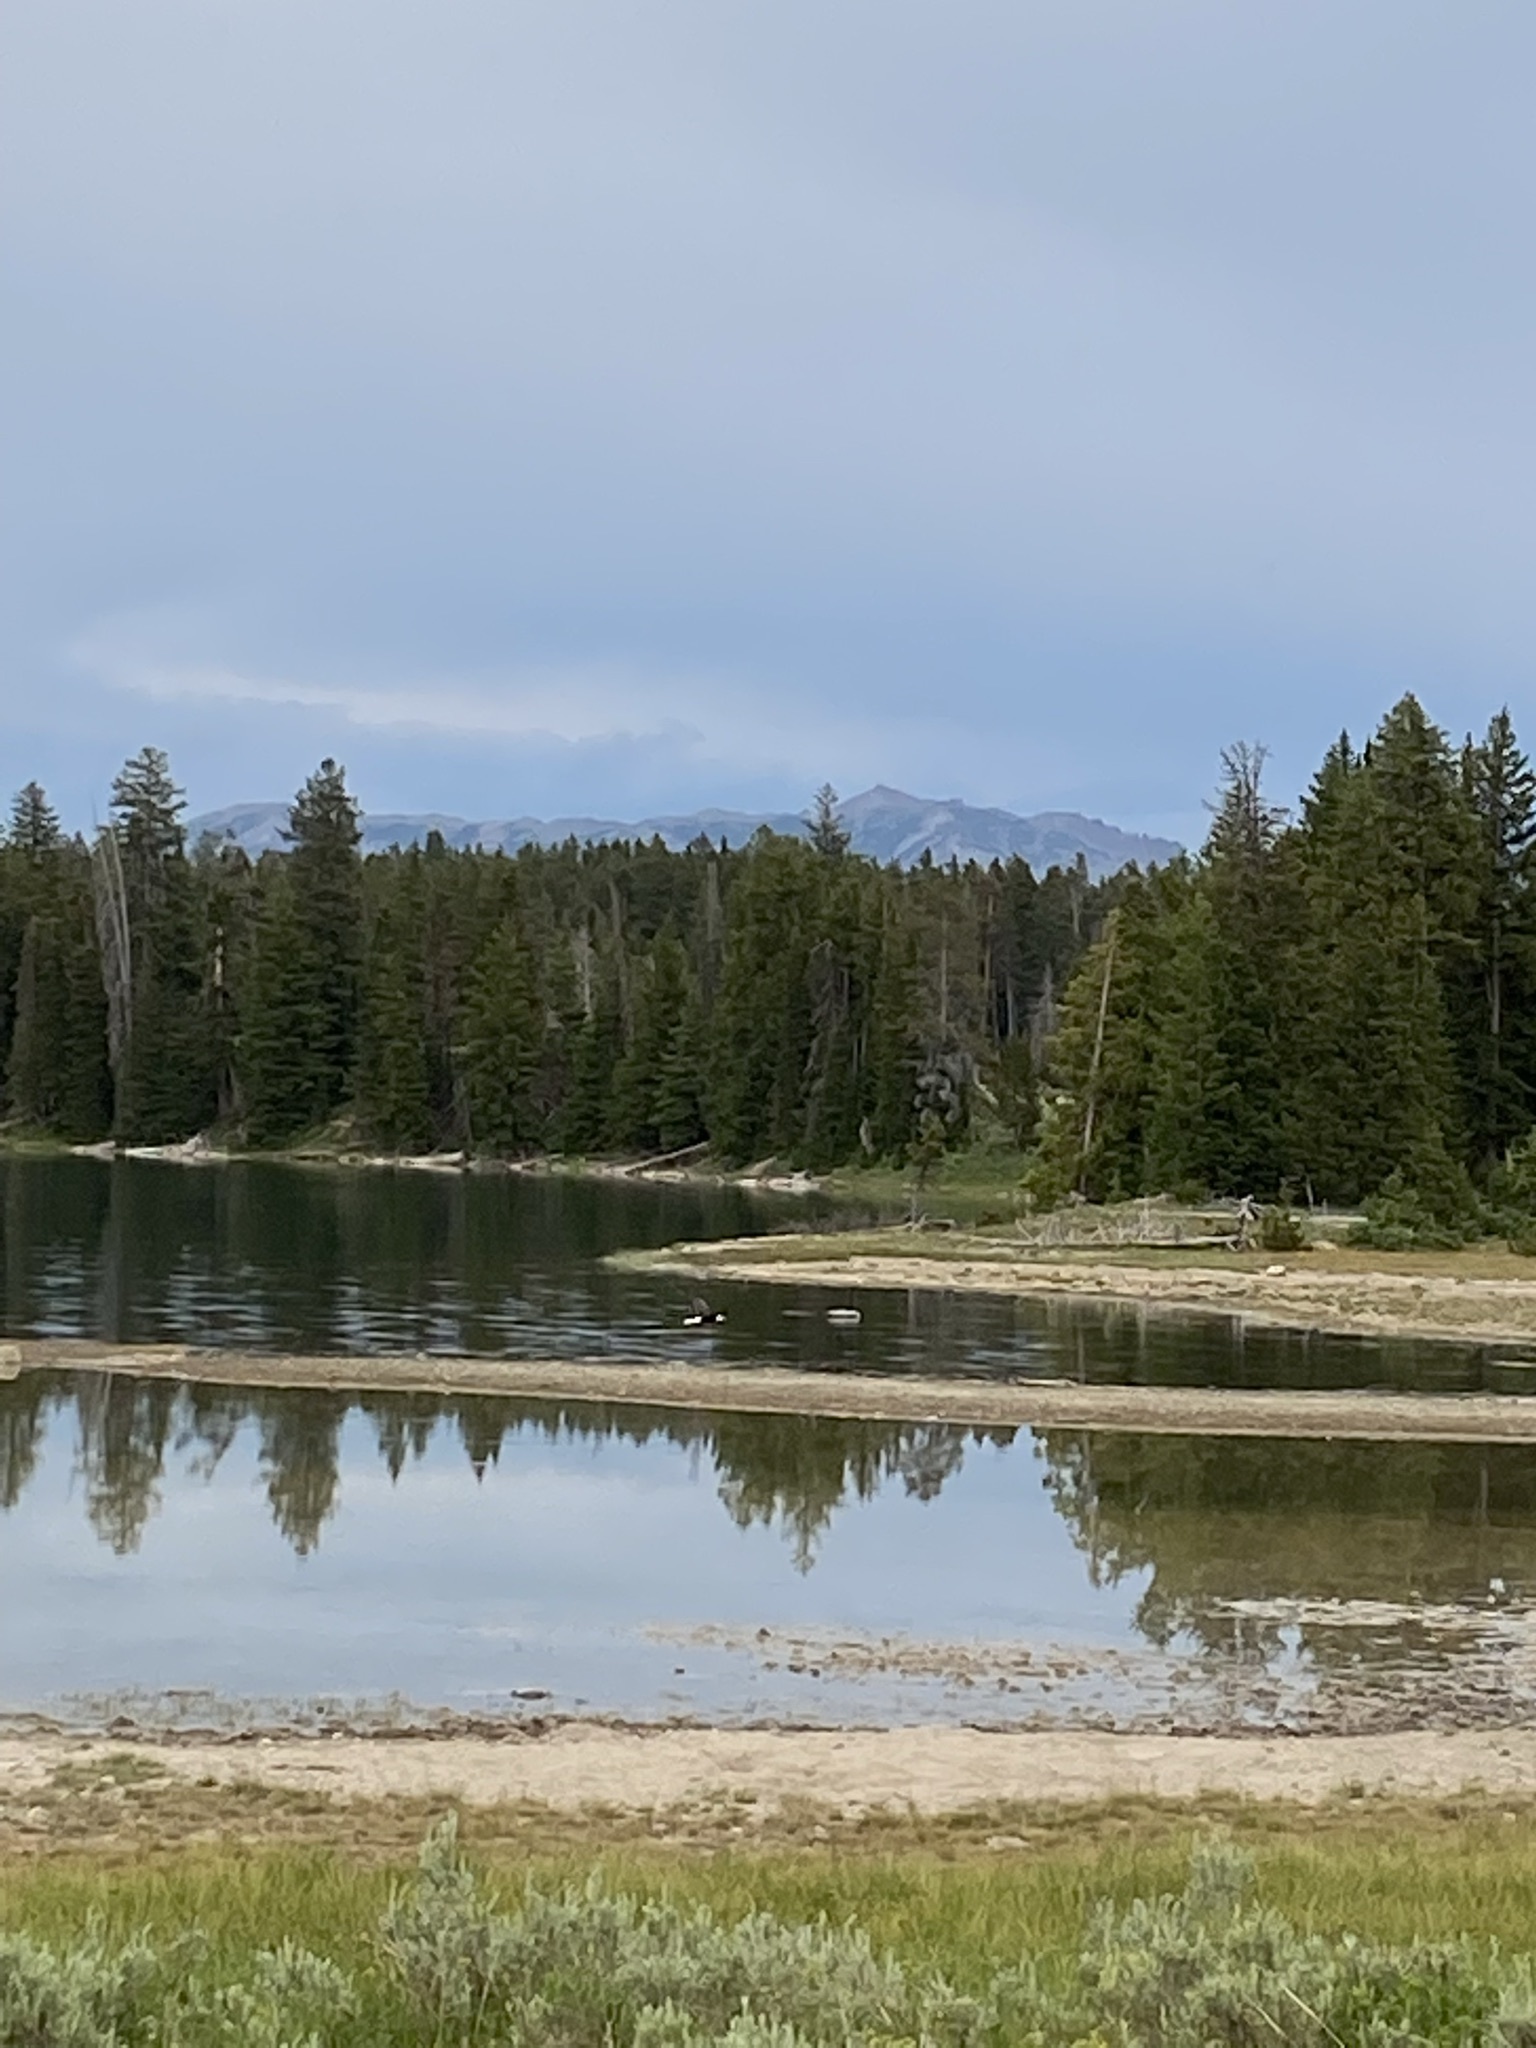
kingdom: Animalia
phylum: Chordata
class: Aves
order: Accipitriformes
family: Accipitridae
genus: Haliaeetus
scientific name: Haliaeetus leucocephalus
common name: Bald eagle
